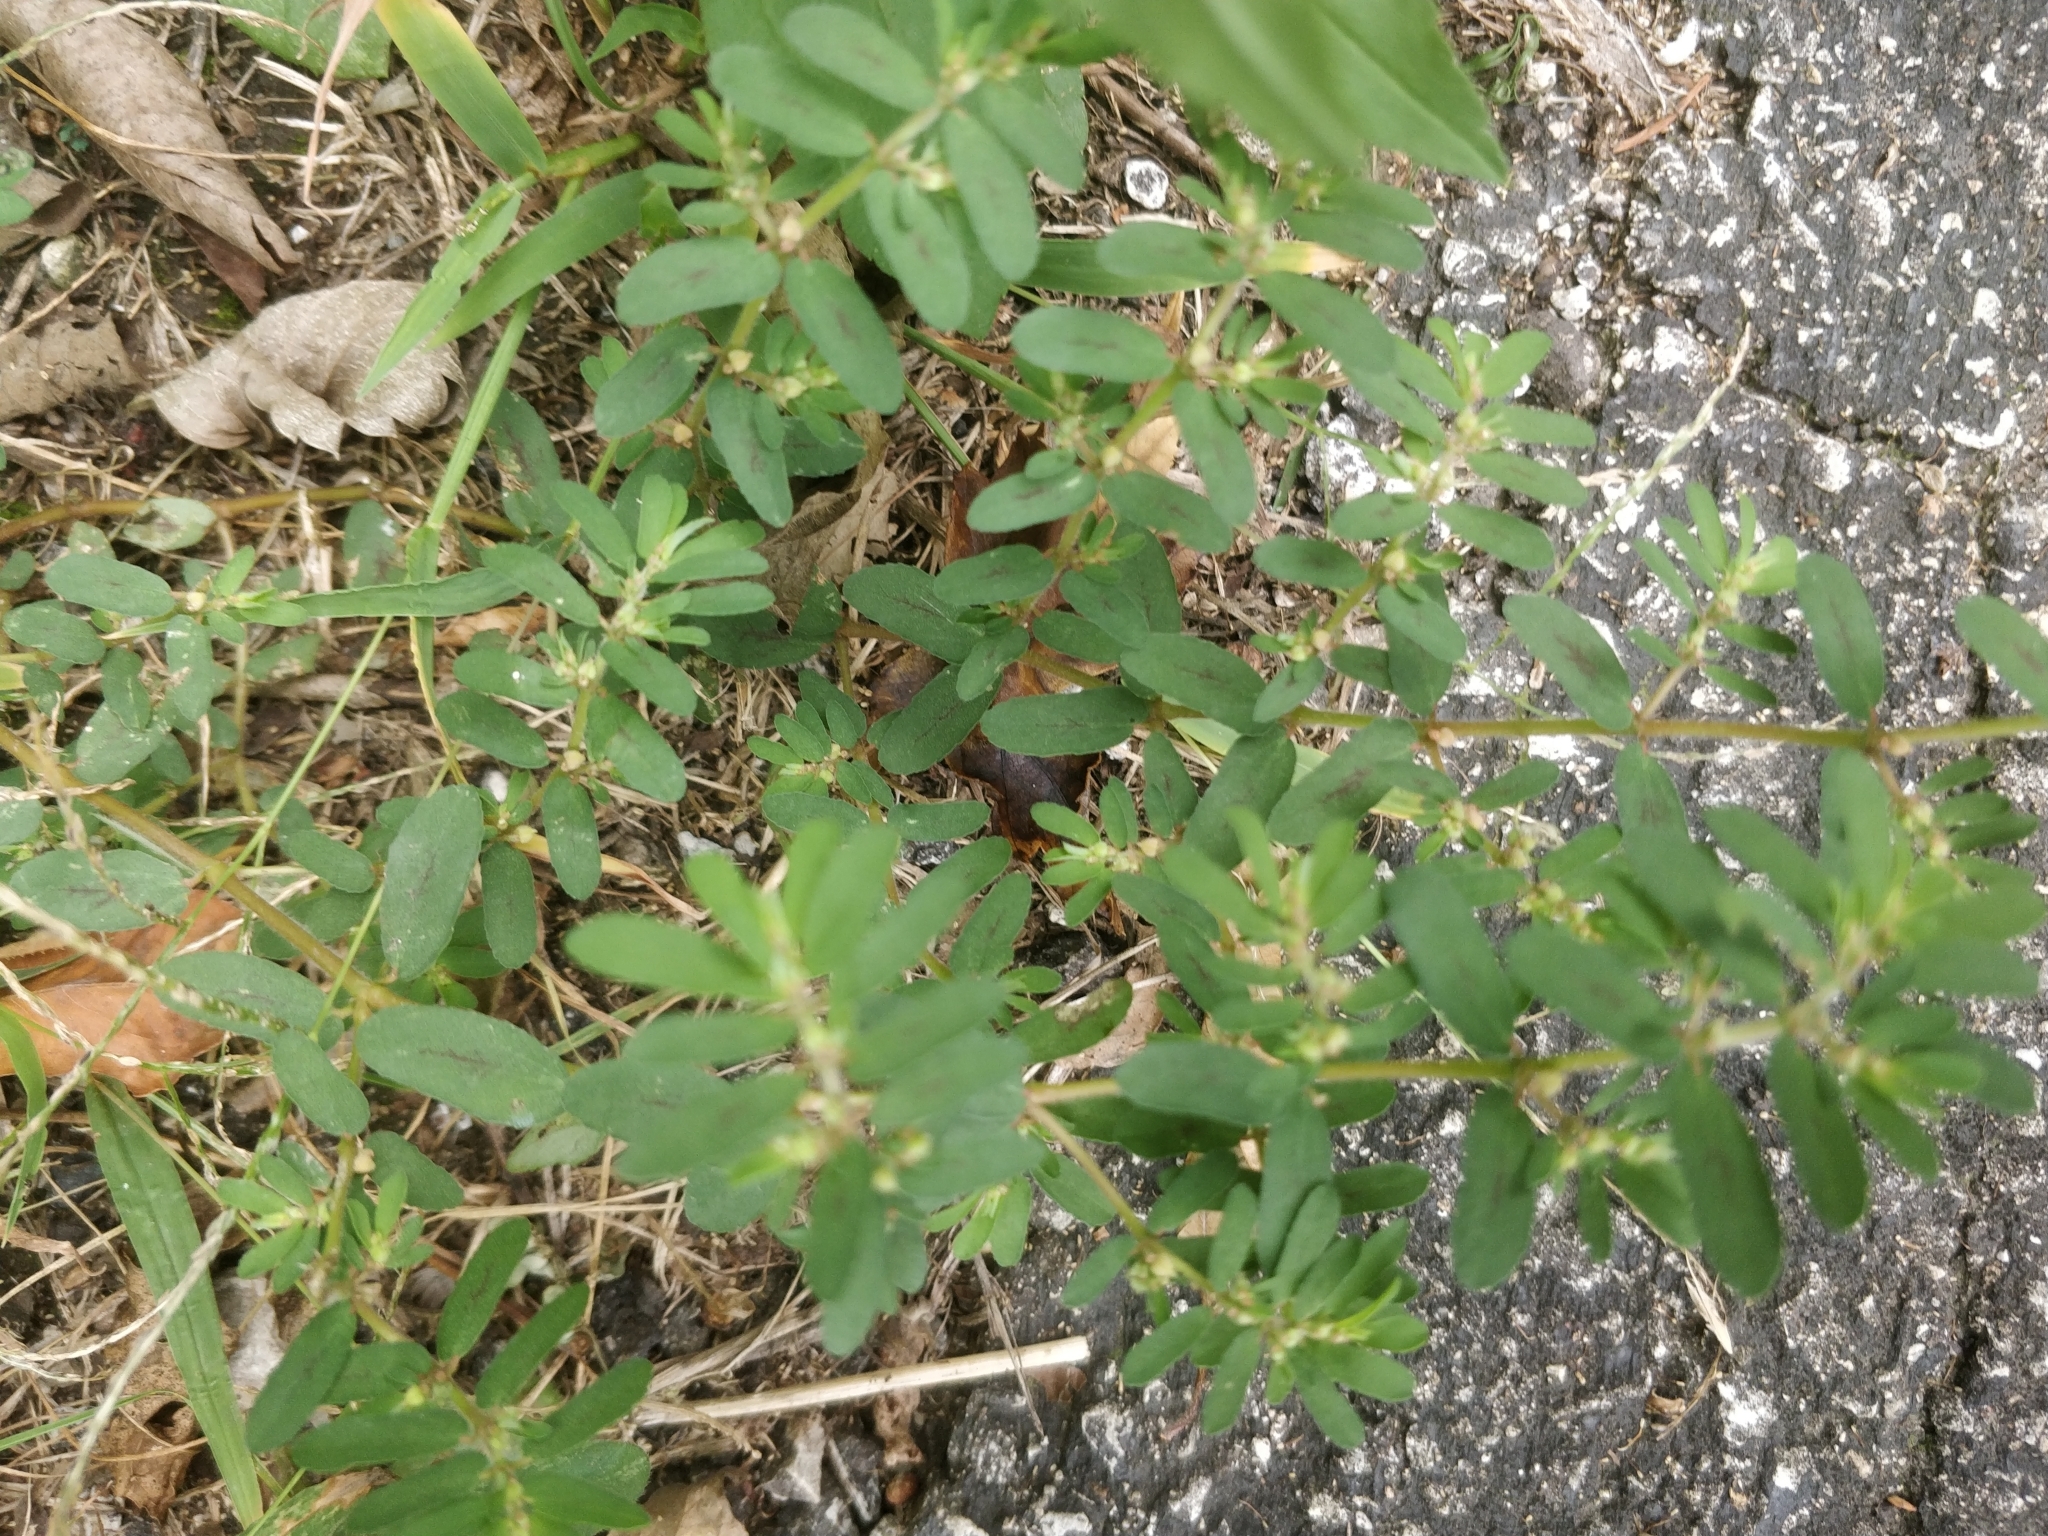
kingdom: Plantae
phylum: Tracheophyta
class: Magnoliopsida
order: Malpighiales
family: Euphorbiaceae
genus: Euphorbia
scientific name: Euphorbia maculata
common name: Spotted spurge
